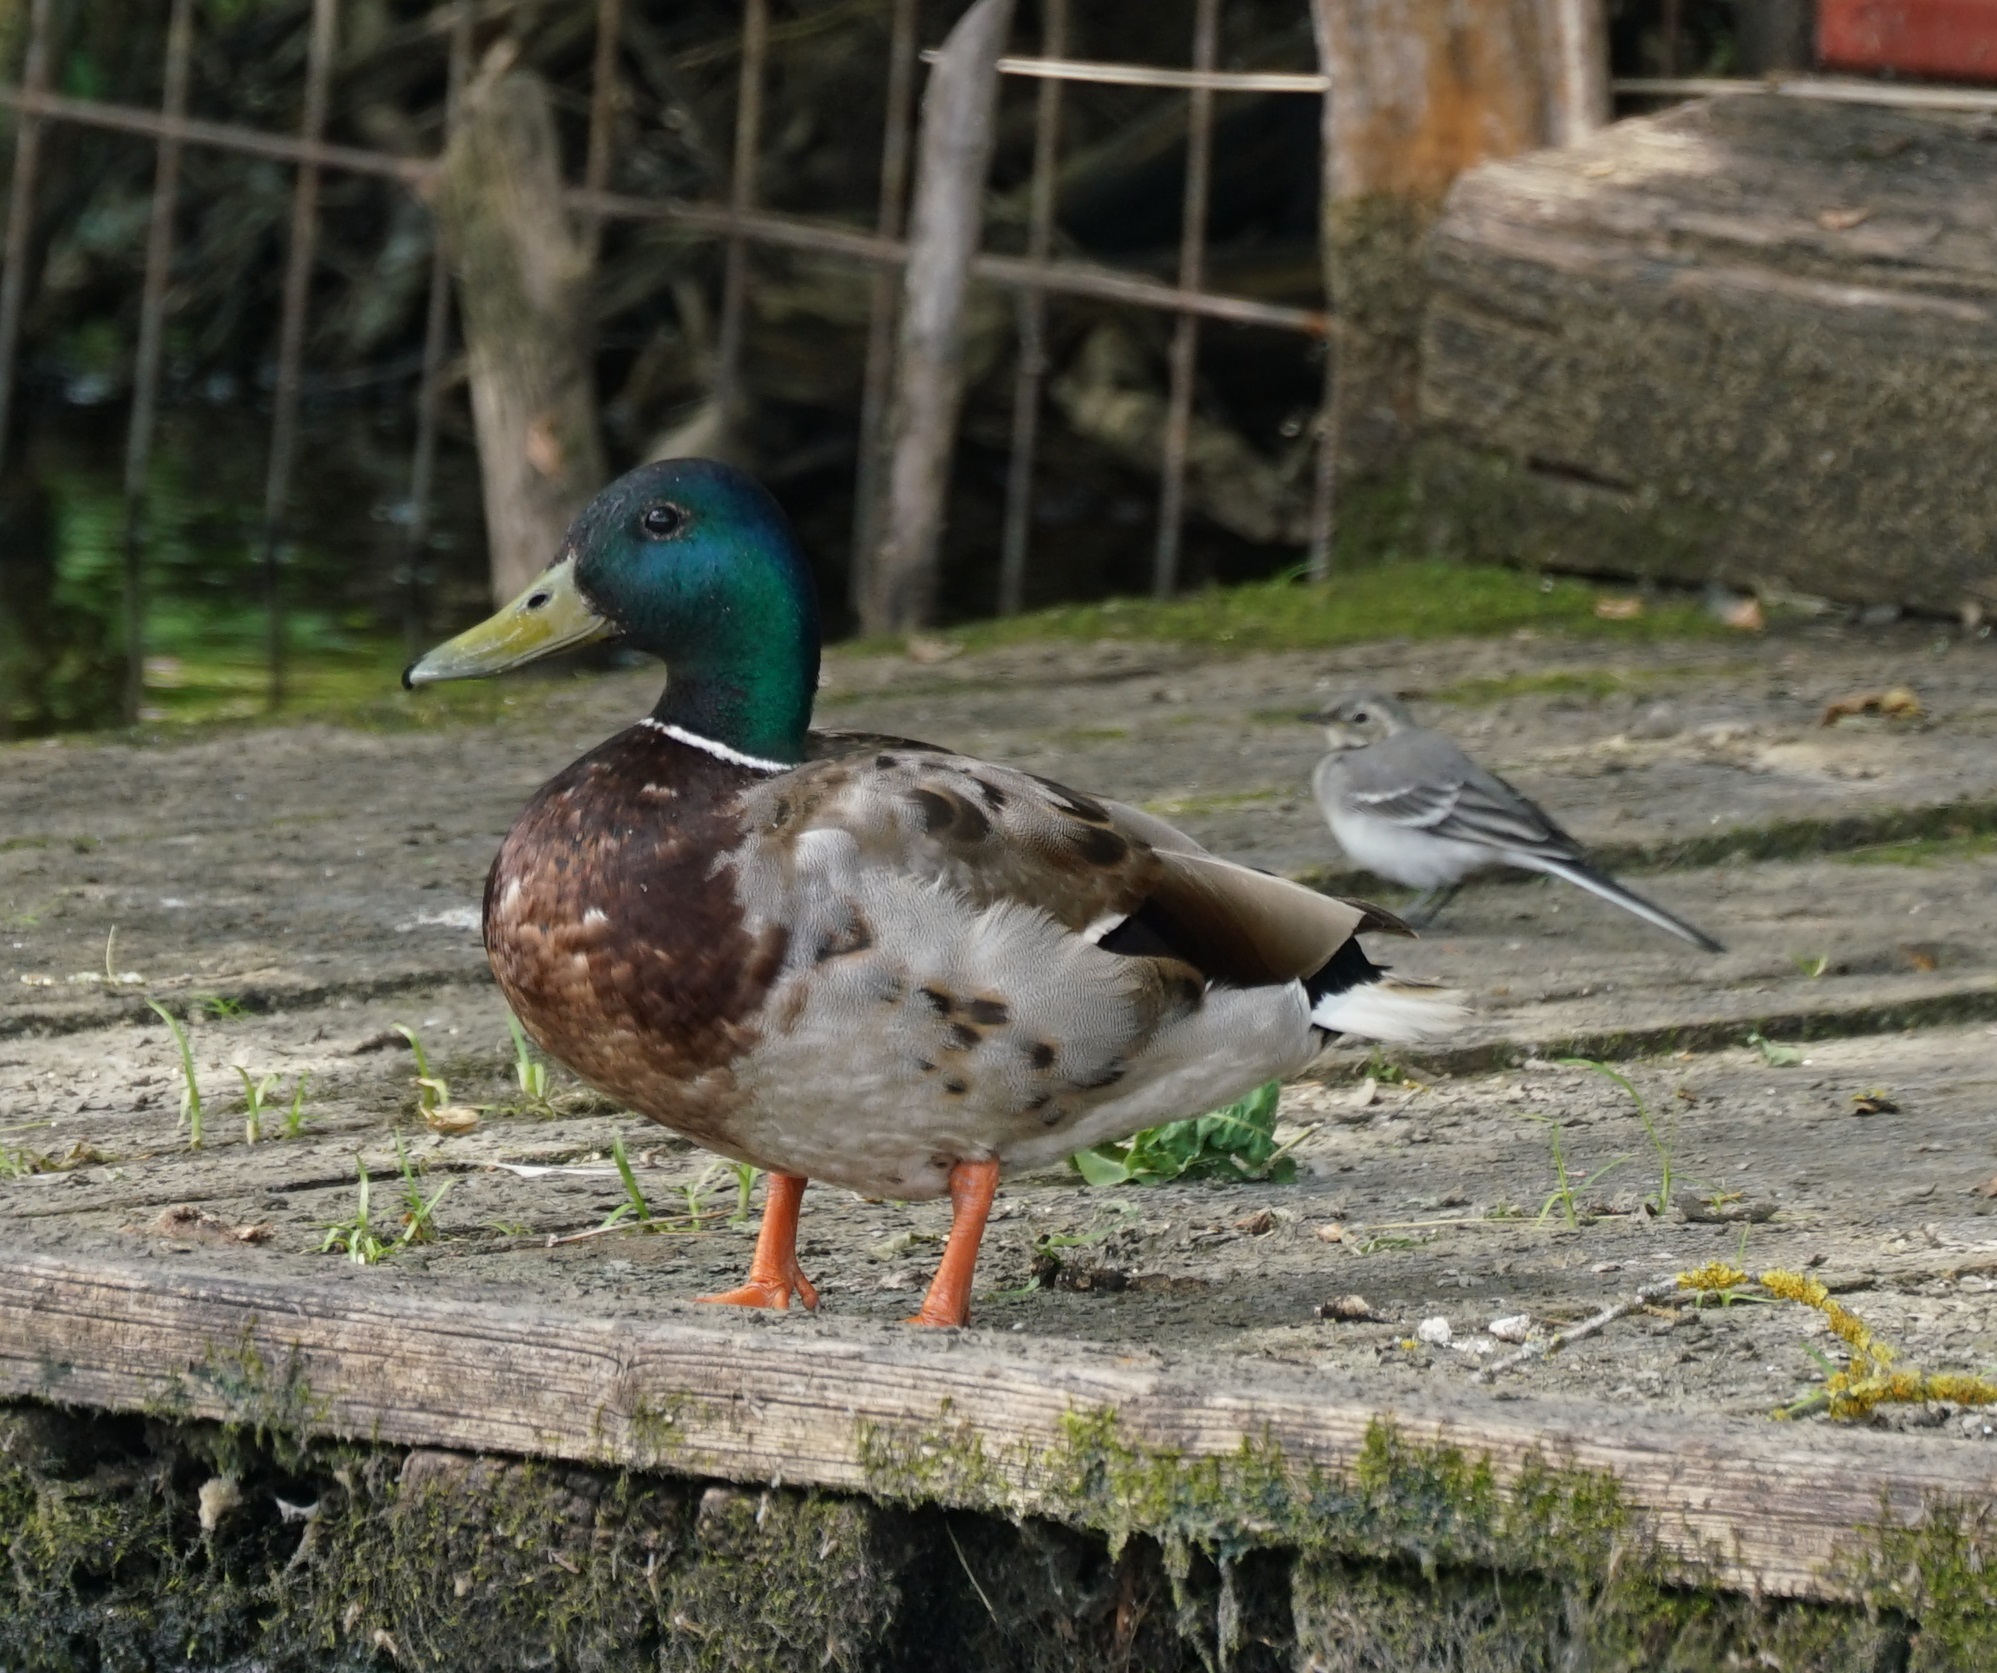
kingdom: Animalia
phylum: Chordata
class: Aves
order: Anseriformes
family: Anatidae
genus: Anas
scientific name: Anas platyrhynchos
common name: Mallard
